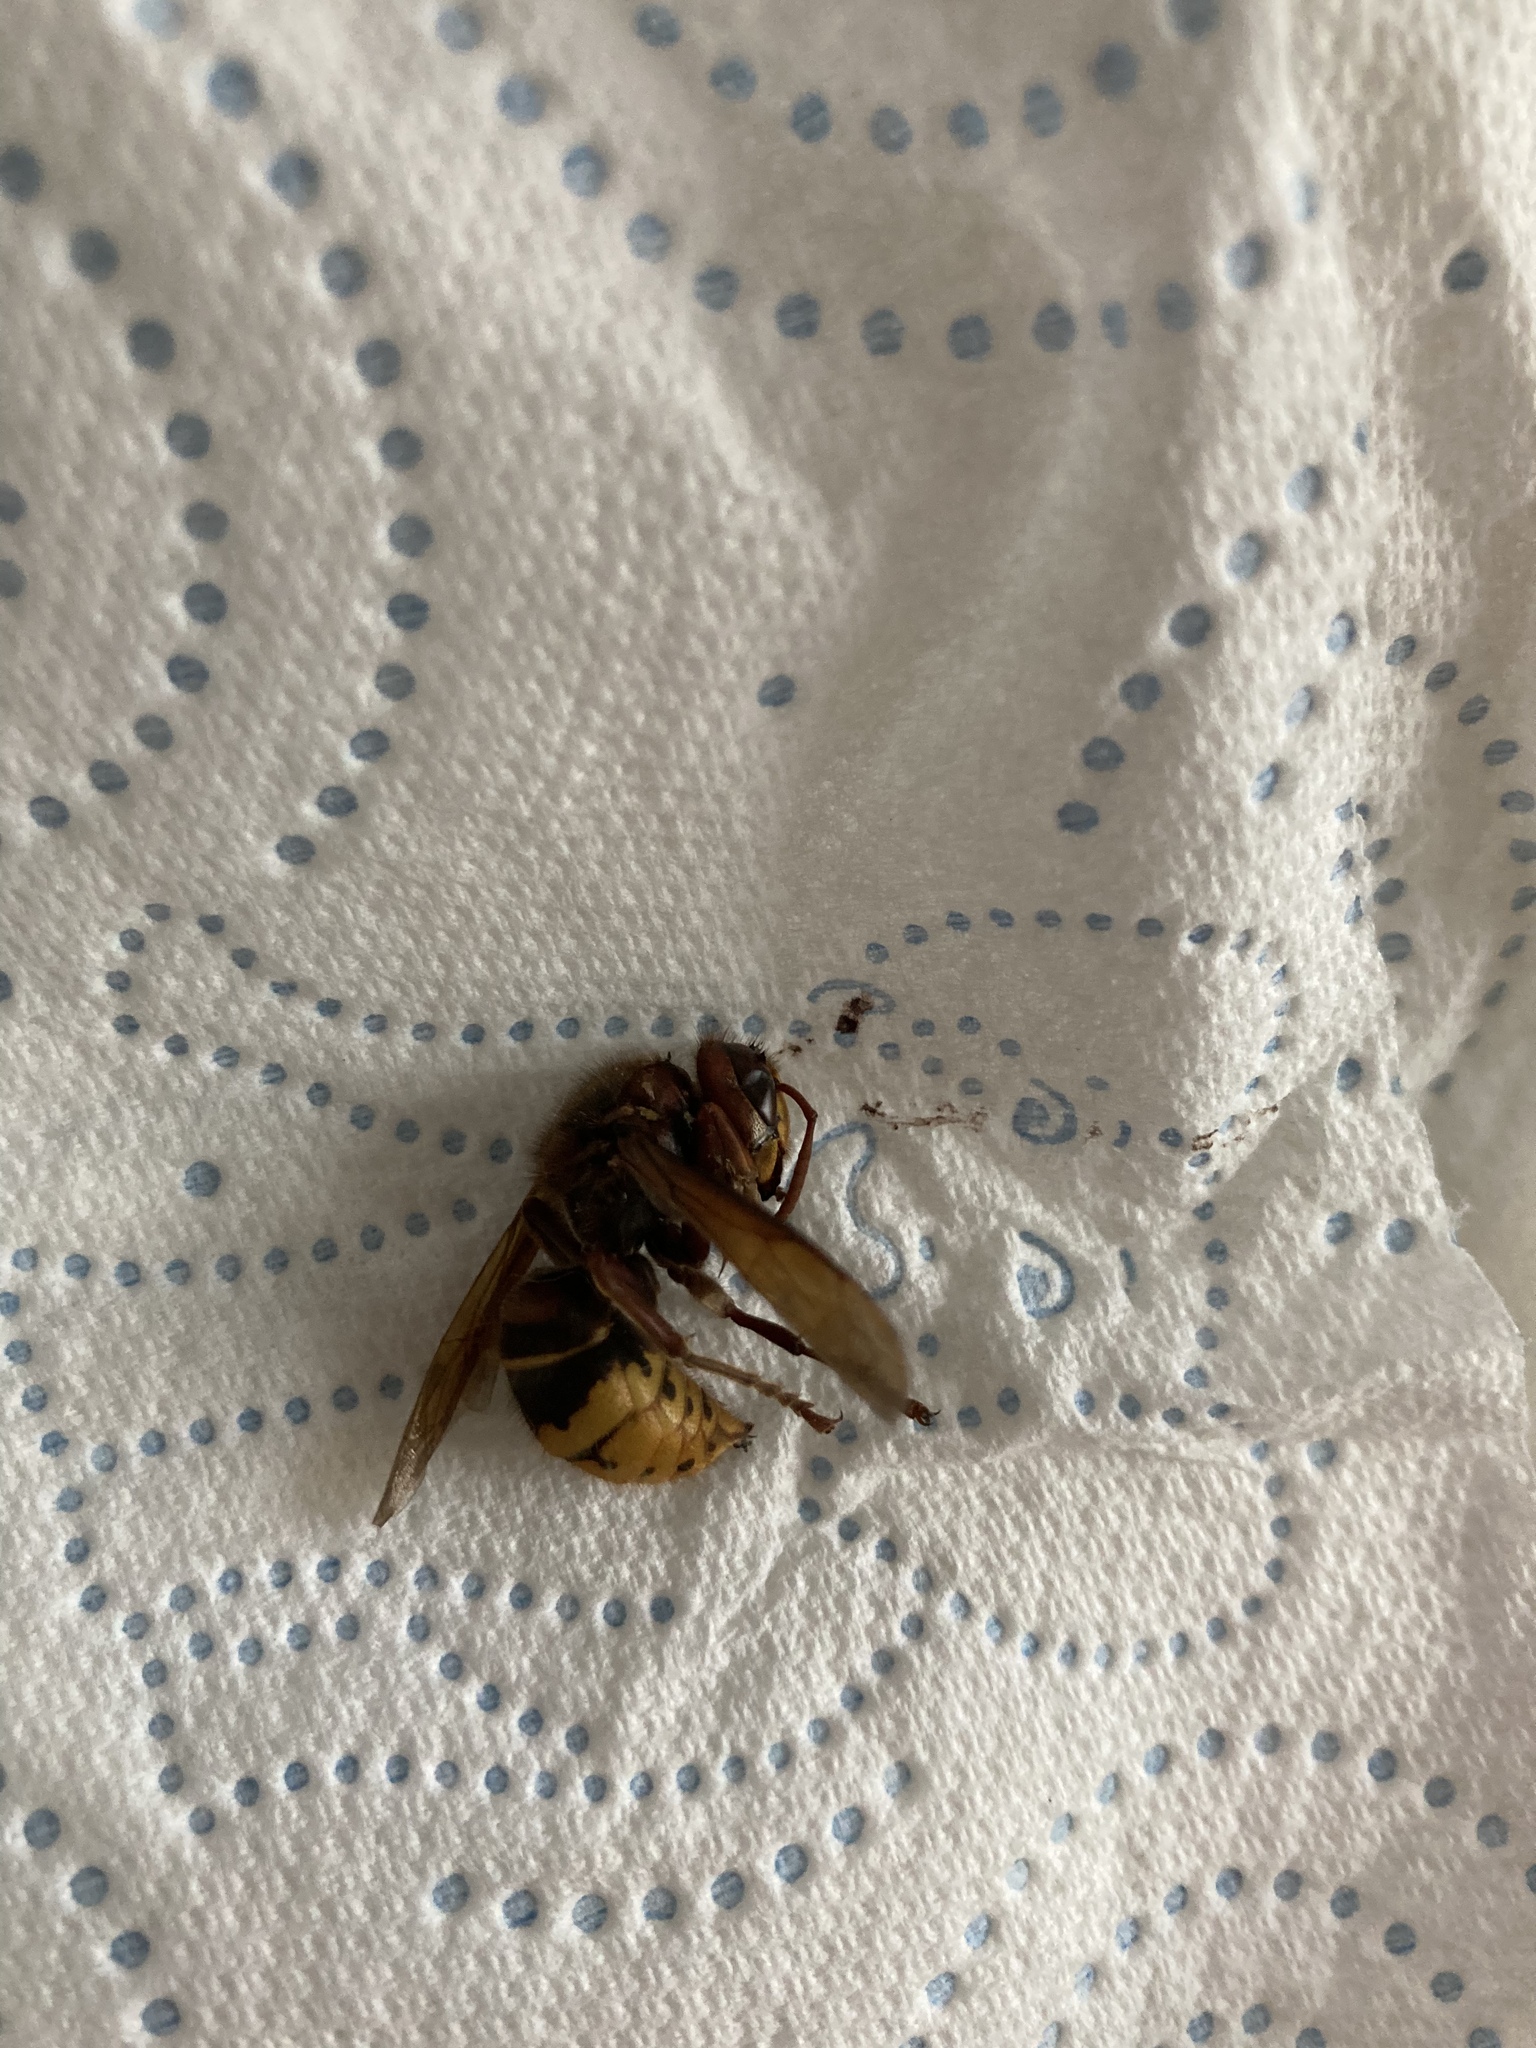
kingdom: Animalia
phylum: Arthropoda
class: Insecta
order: Hymenoptera
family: Vespidae
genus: Vespa
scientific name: Vespa crabro
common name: Hornet
